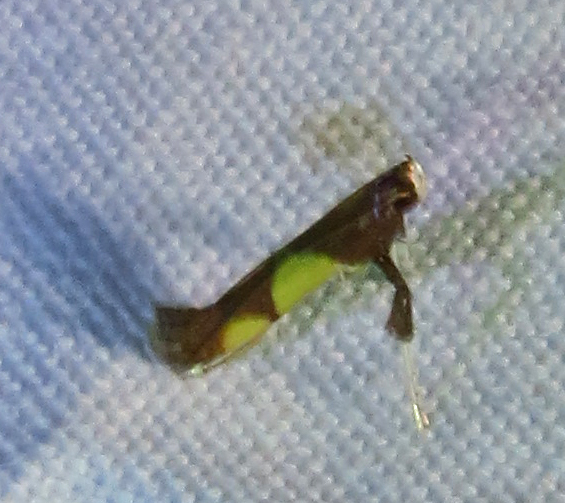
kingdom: Animalia
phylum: Arthropoda
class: Insecta
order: Lepidoptera
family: Gracillariidae
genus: Caloptilia
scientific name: Caloptilia bimaculatella
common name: Maple caloptilia moth
